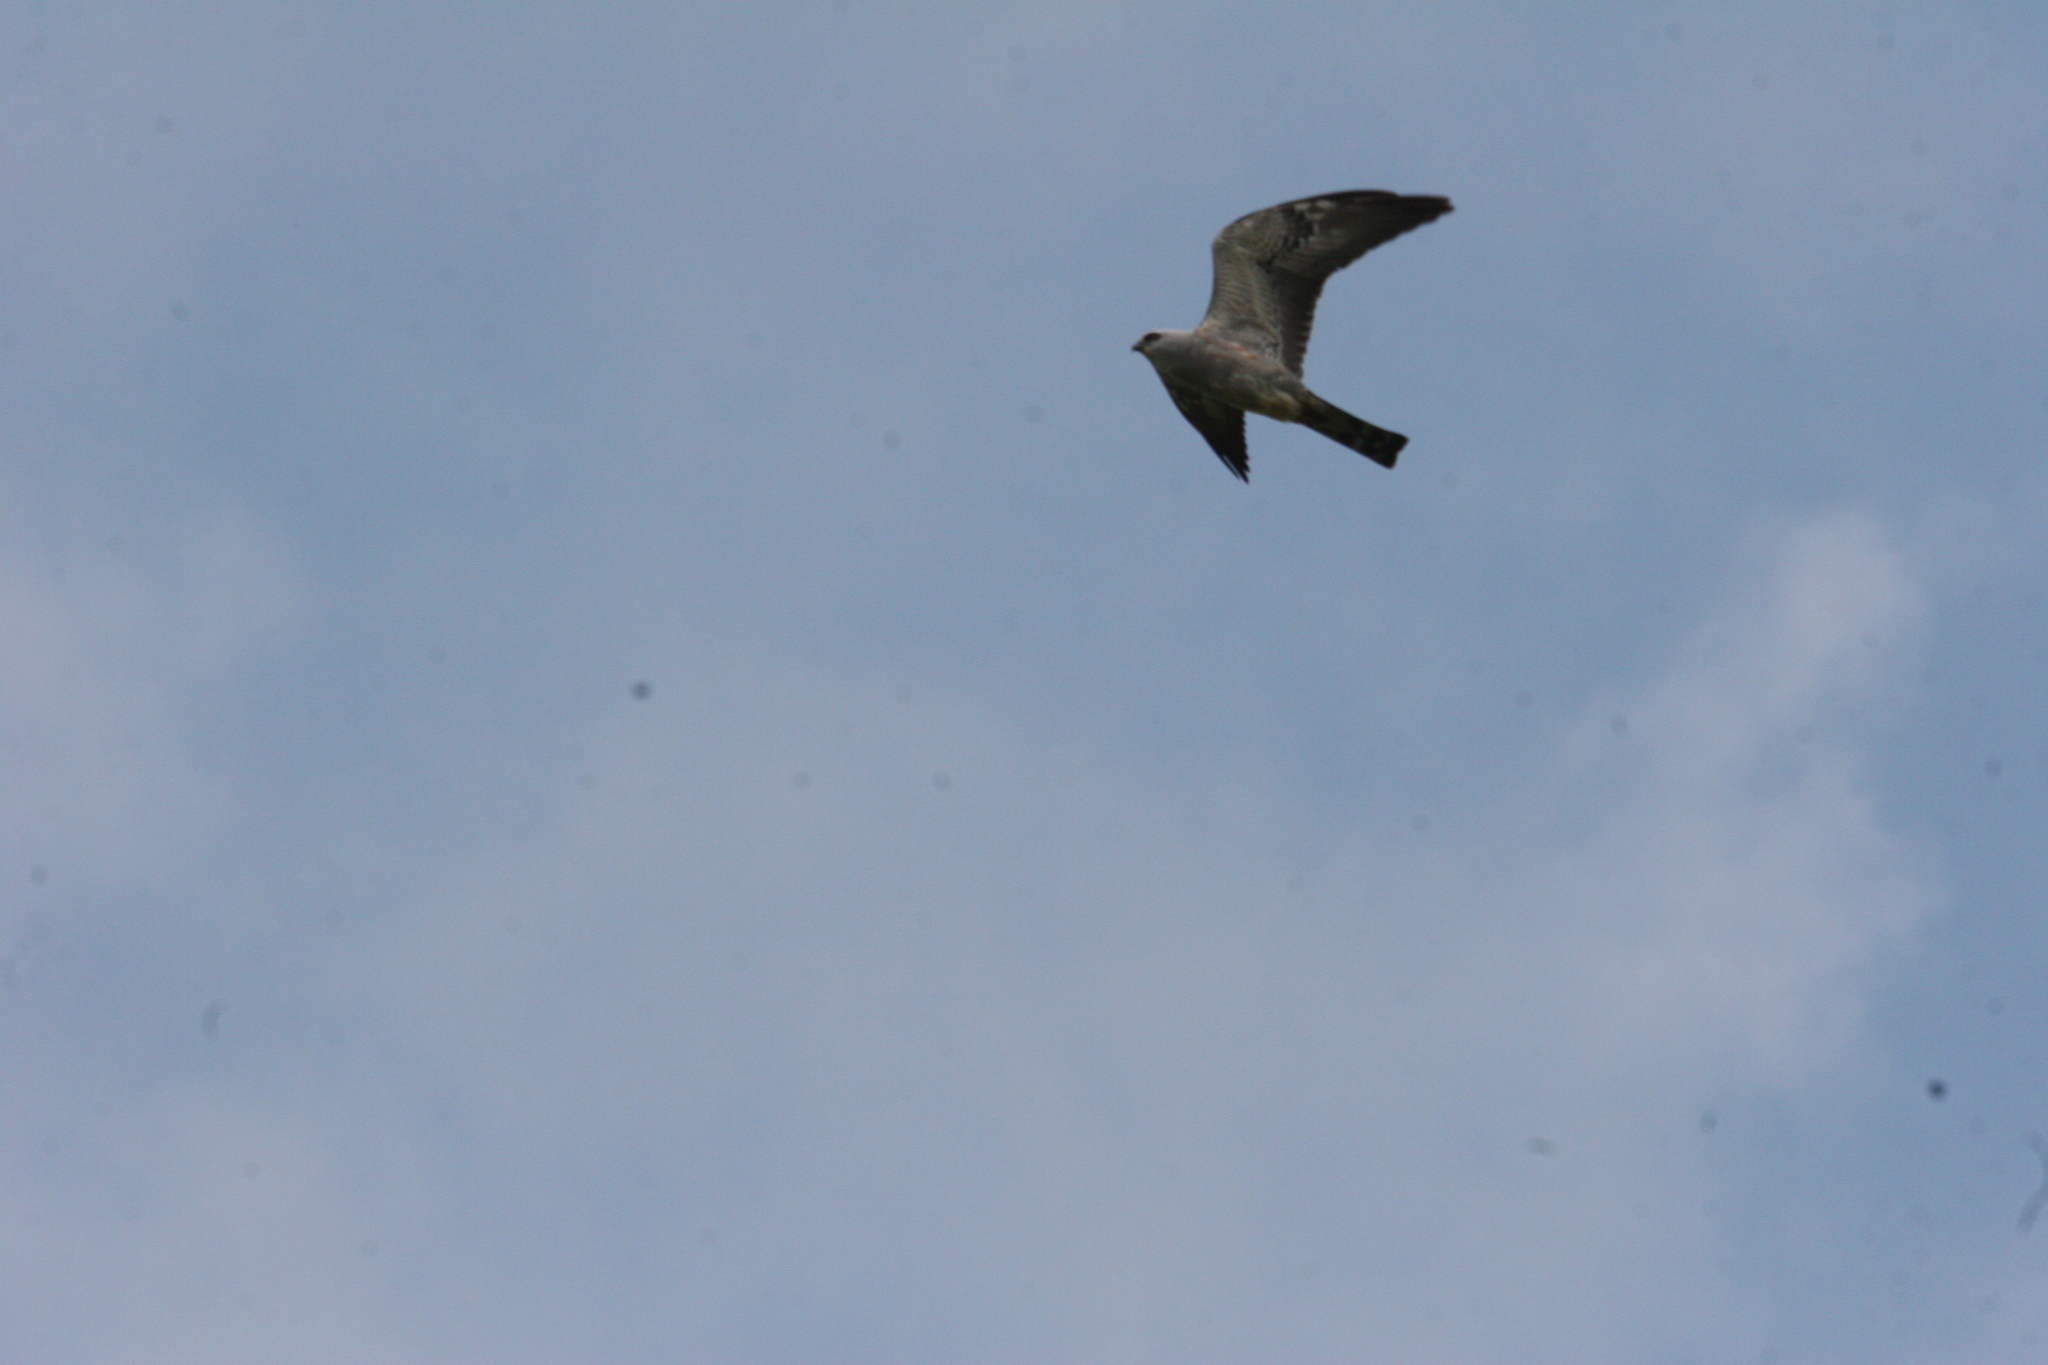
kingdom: Animalia
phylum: Chordata
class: Aves
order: Accipitriformes
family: Accipitridae
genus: Ictinia
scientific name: Ictinia mississippiensis
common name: Mississippi kite
